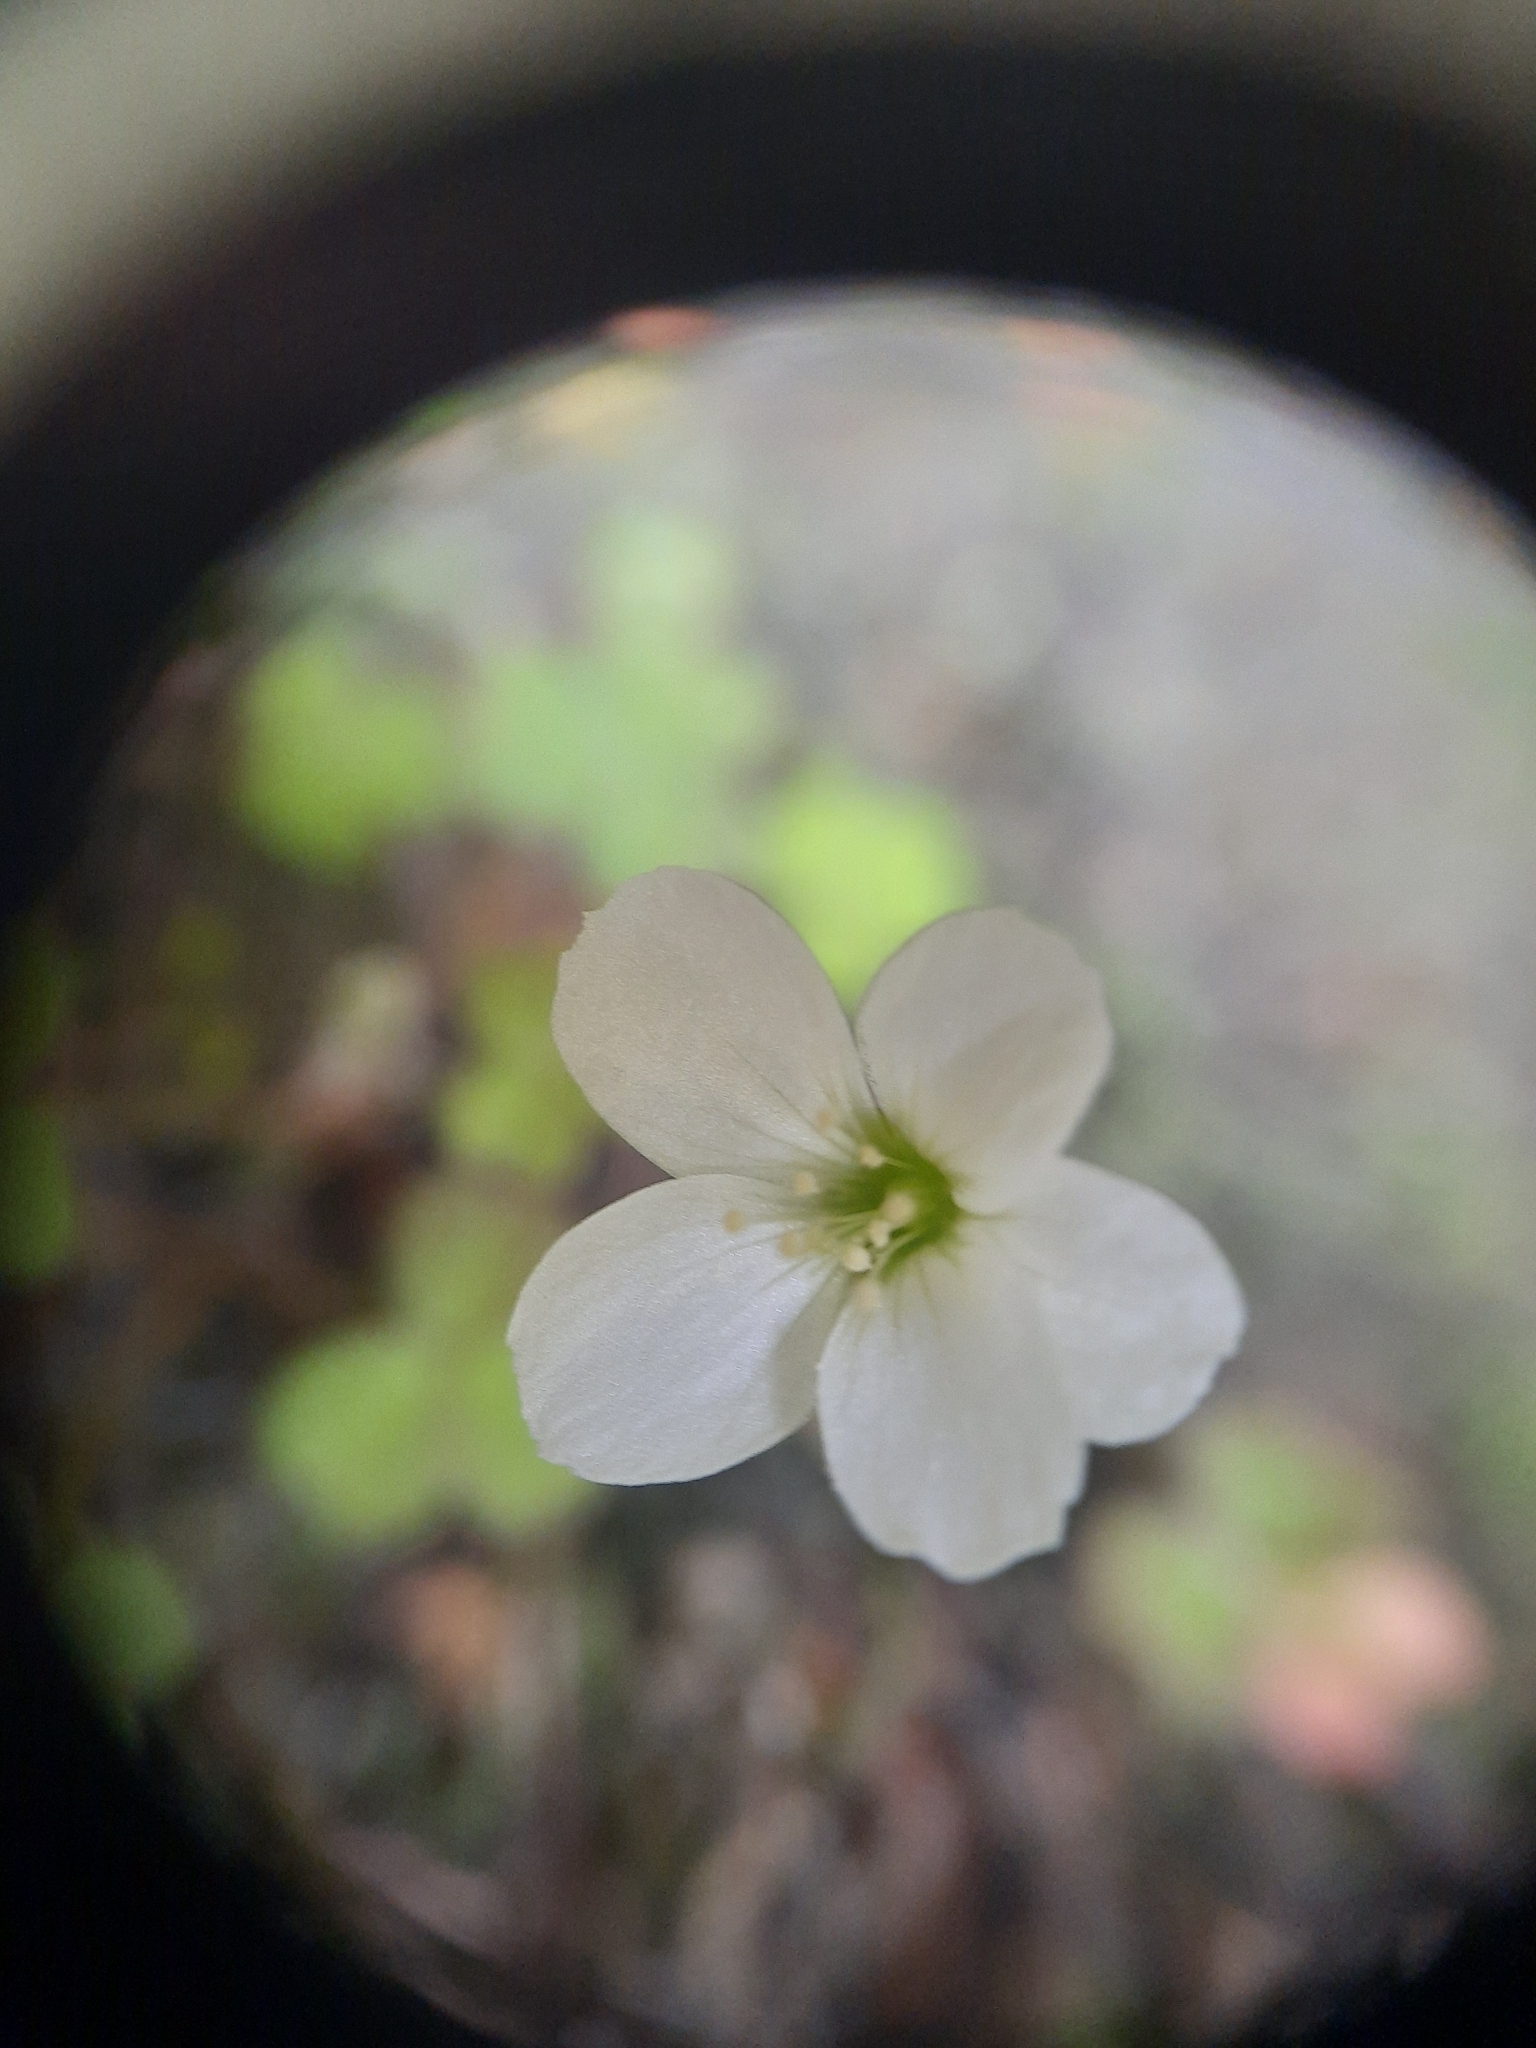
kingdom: Plantae
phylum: Tracheophyta
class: Magnoliopsida
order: Oxalidales
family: Oxalidaceae
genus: Oxalis
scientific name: Oxalis magellanica
